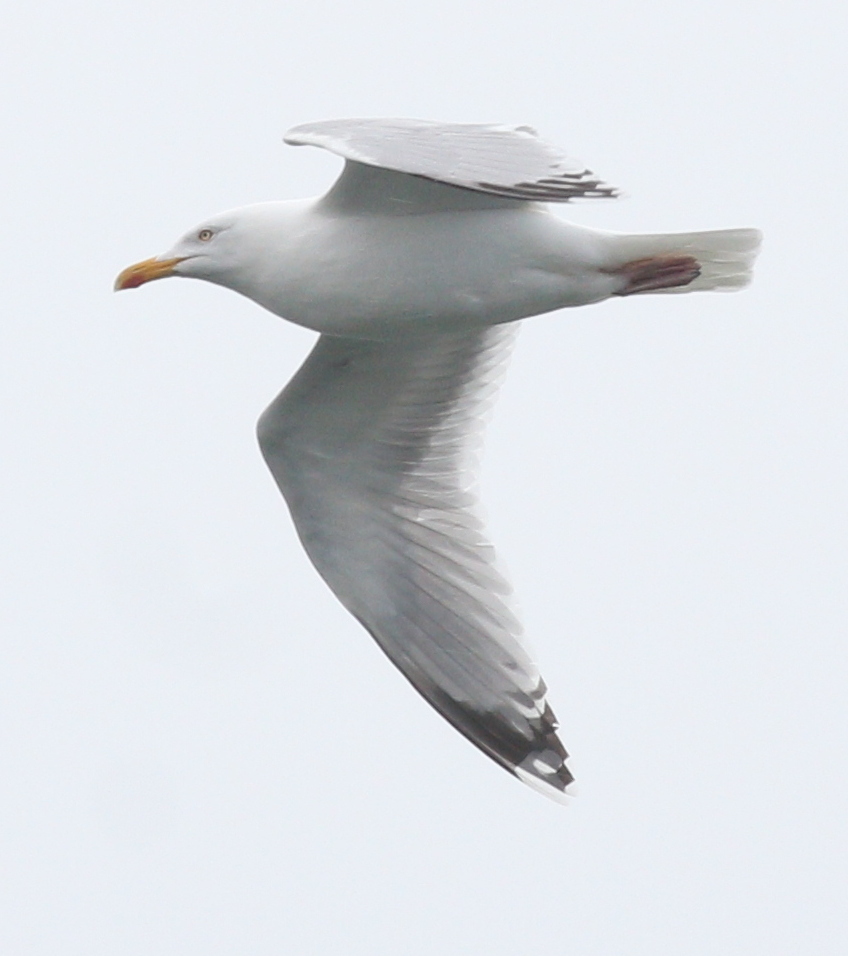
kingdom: Animalia
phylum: Chordata
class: Aves
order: Charadriiformes
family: Laridae
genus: Larus
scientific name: Larus argentatus
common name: Herring gull
